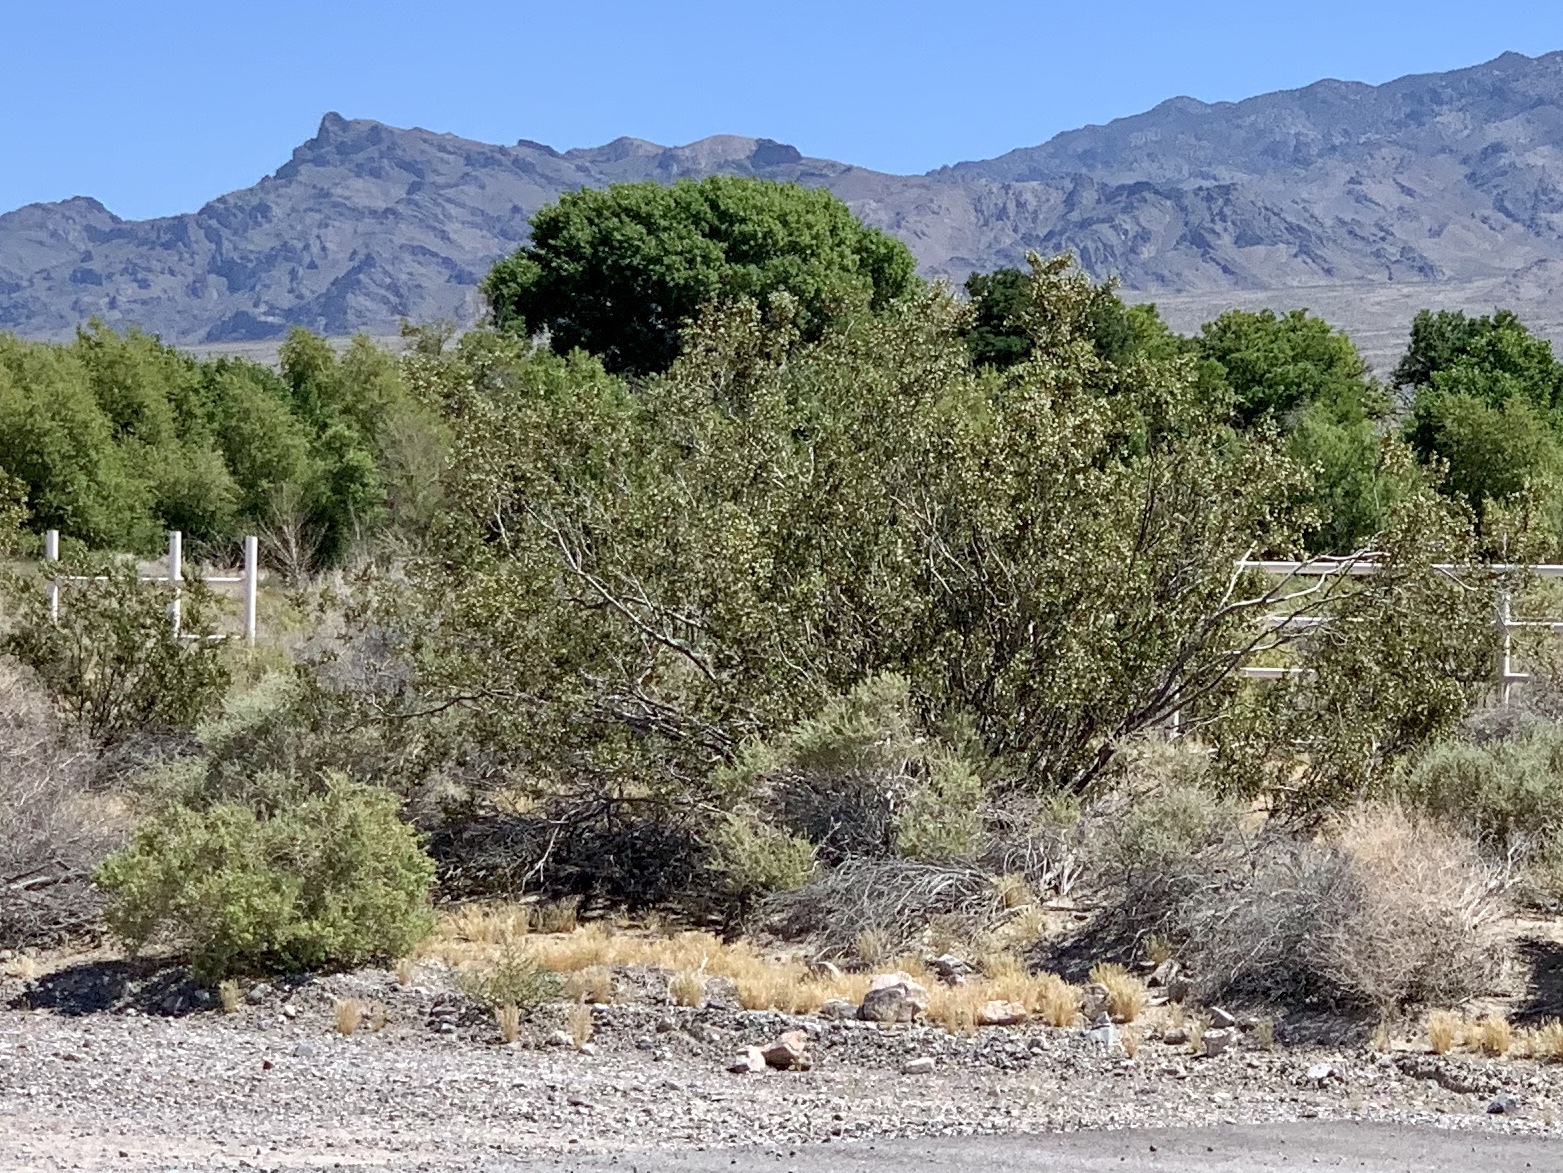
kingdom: Plantae
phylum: Tracheophyta
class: Magnoliopsida
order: Zygophyllales
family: Zygophyllaceae
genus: Larrea
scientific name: Larrea tridentata
